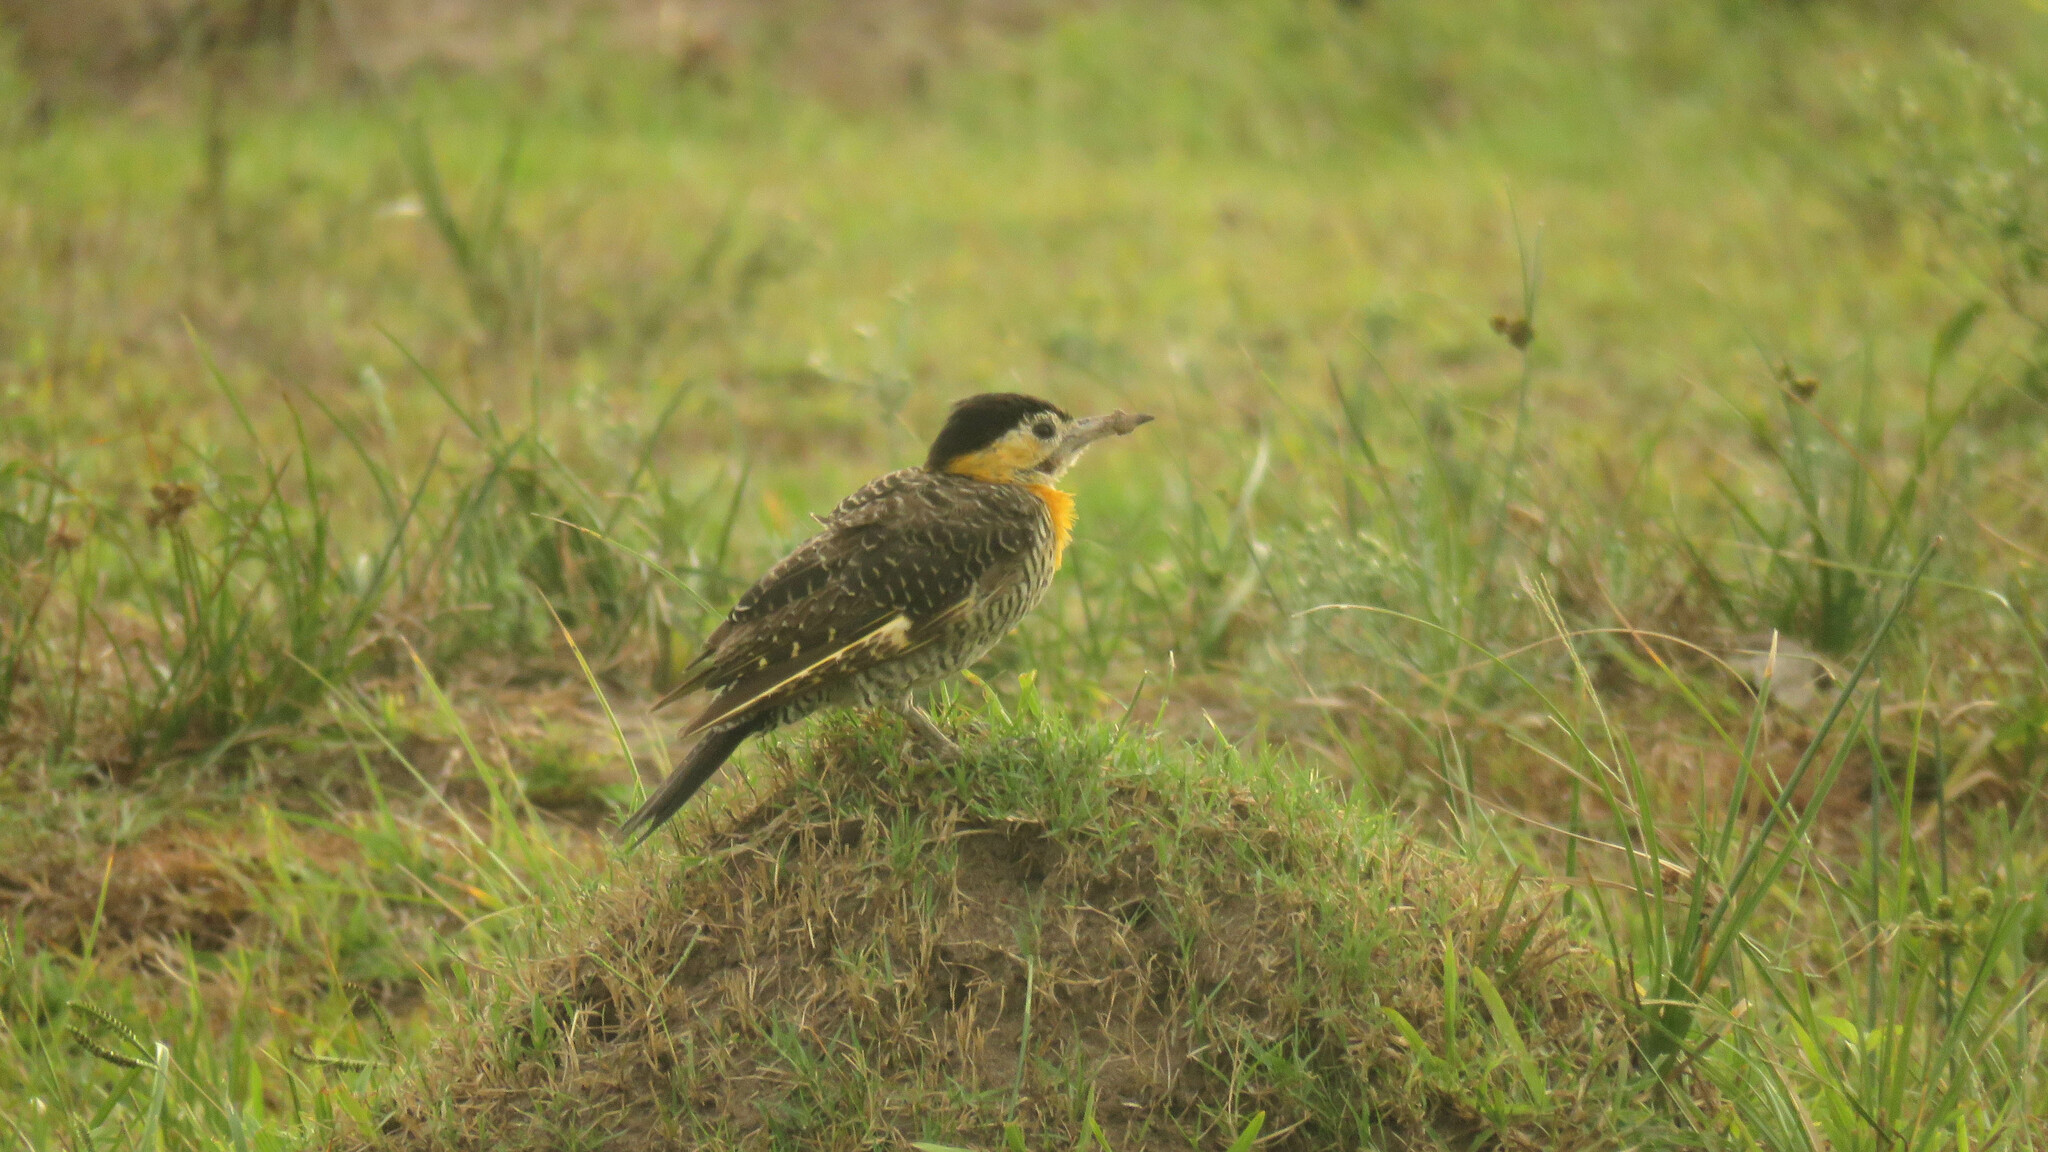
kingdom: Animalia
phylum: Chordata
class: Aves
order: Piciformes
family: Picidae
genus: Colaptes
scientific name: Colaptes campestris
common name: Campo flicker
